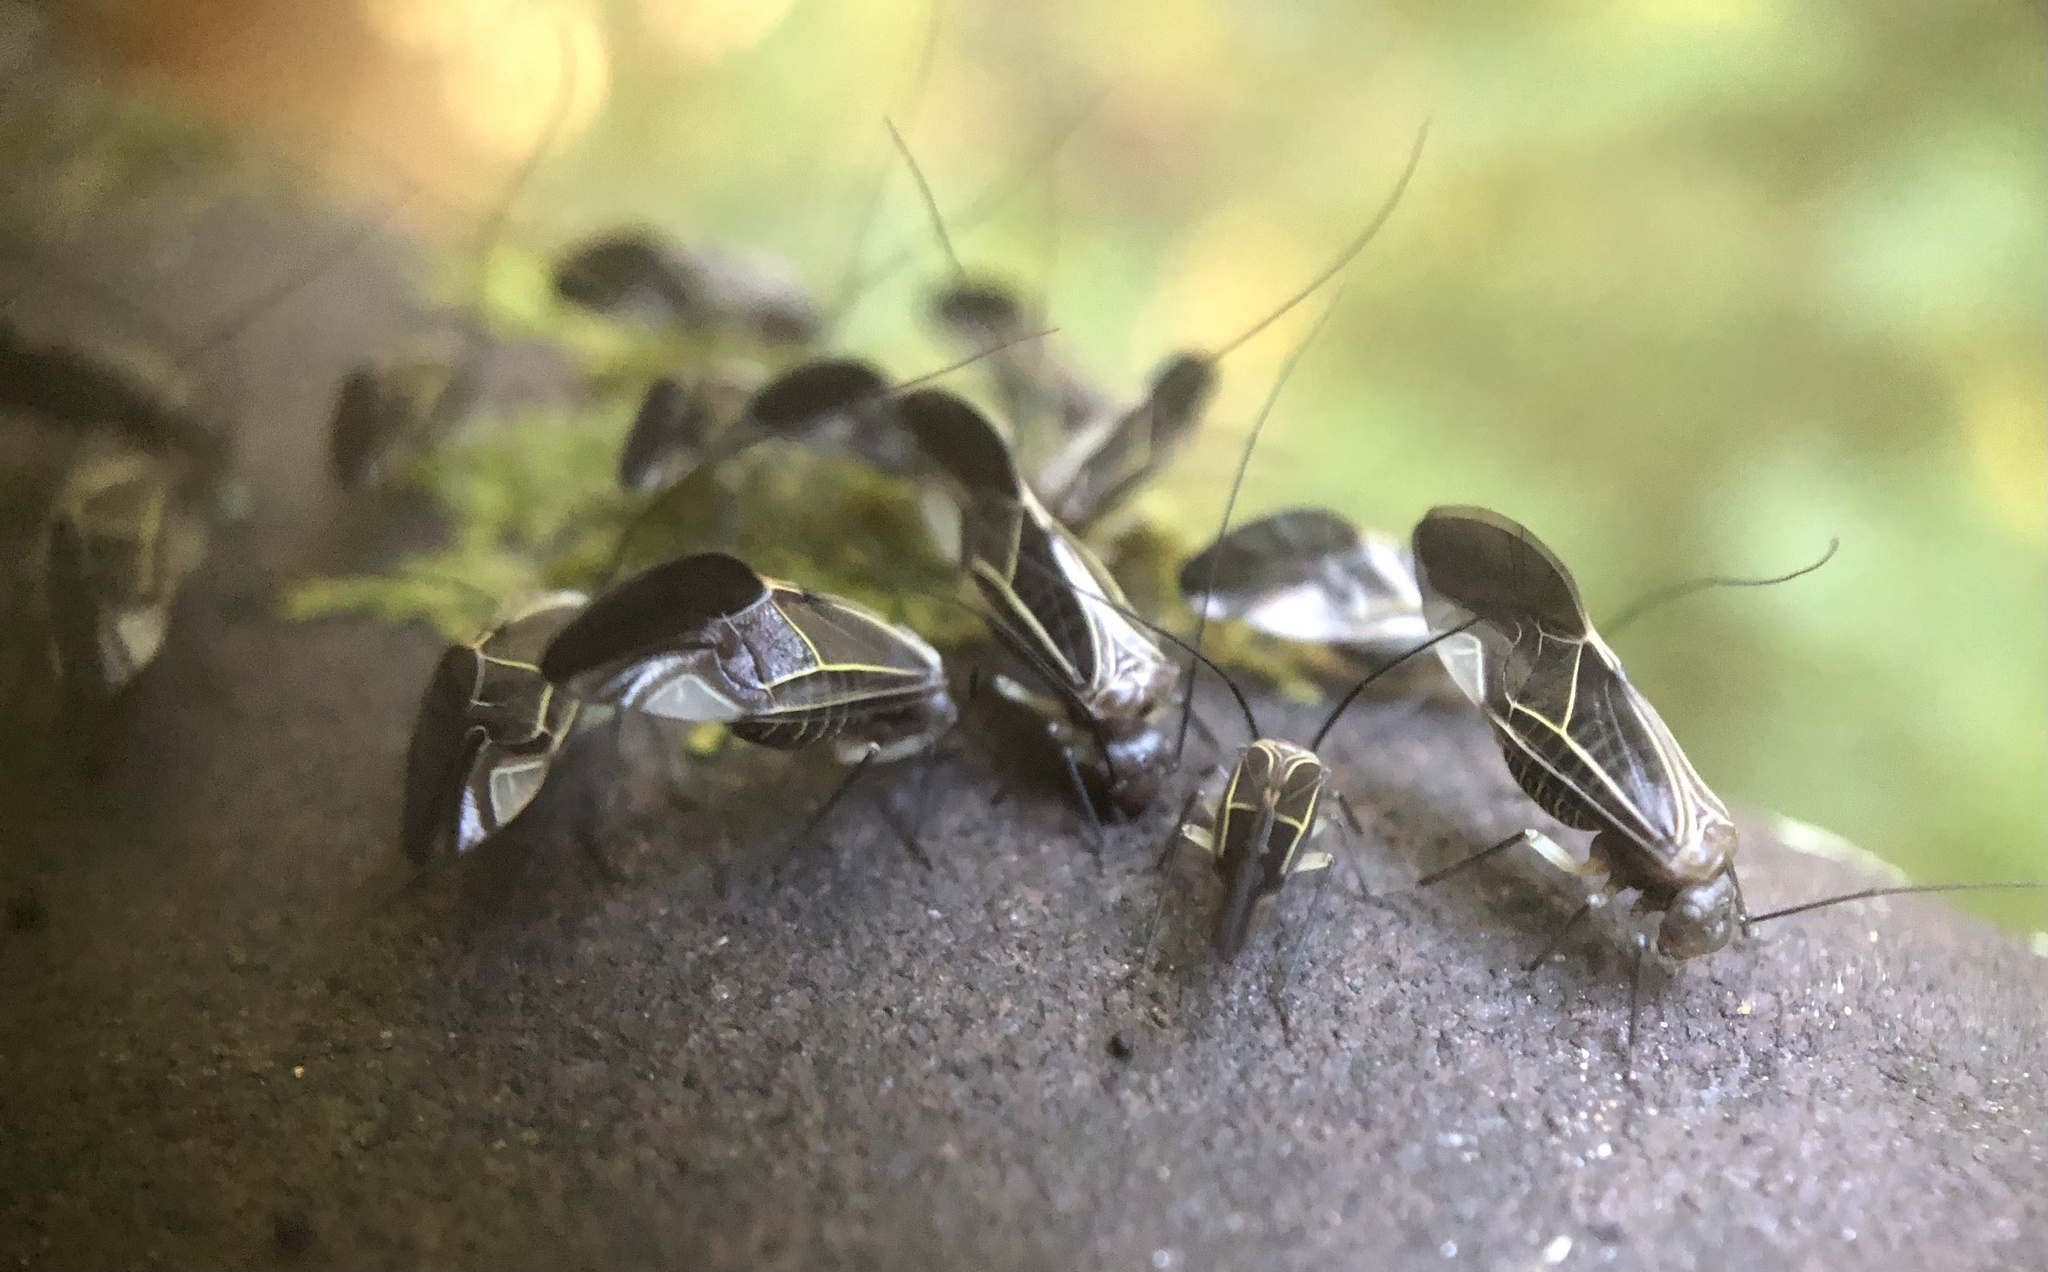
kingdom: Animalia
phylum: Arthropoda
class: Insecta
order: Psocodea
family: Psocidae
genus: Cerastipsocus
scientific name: Cerastipsocus venosus
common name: Tree cattle
